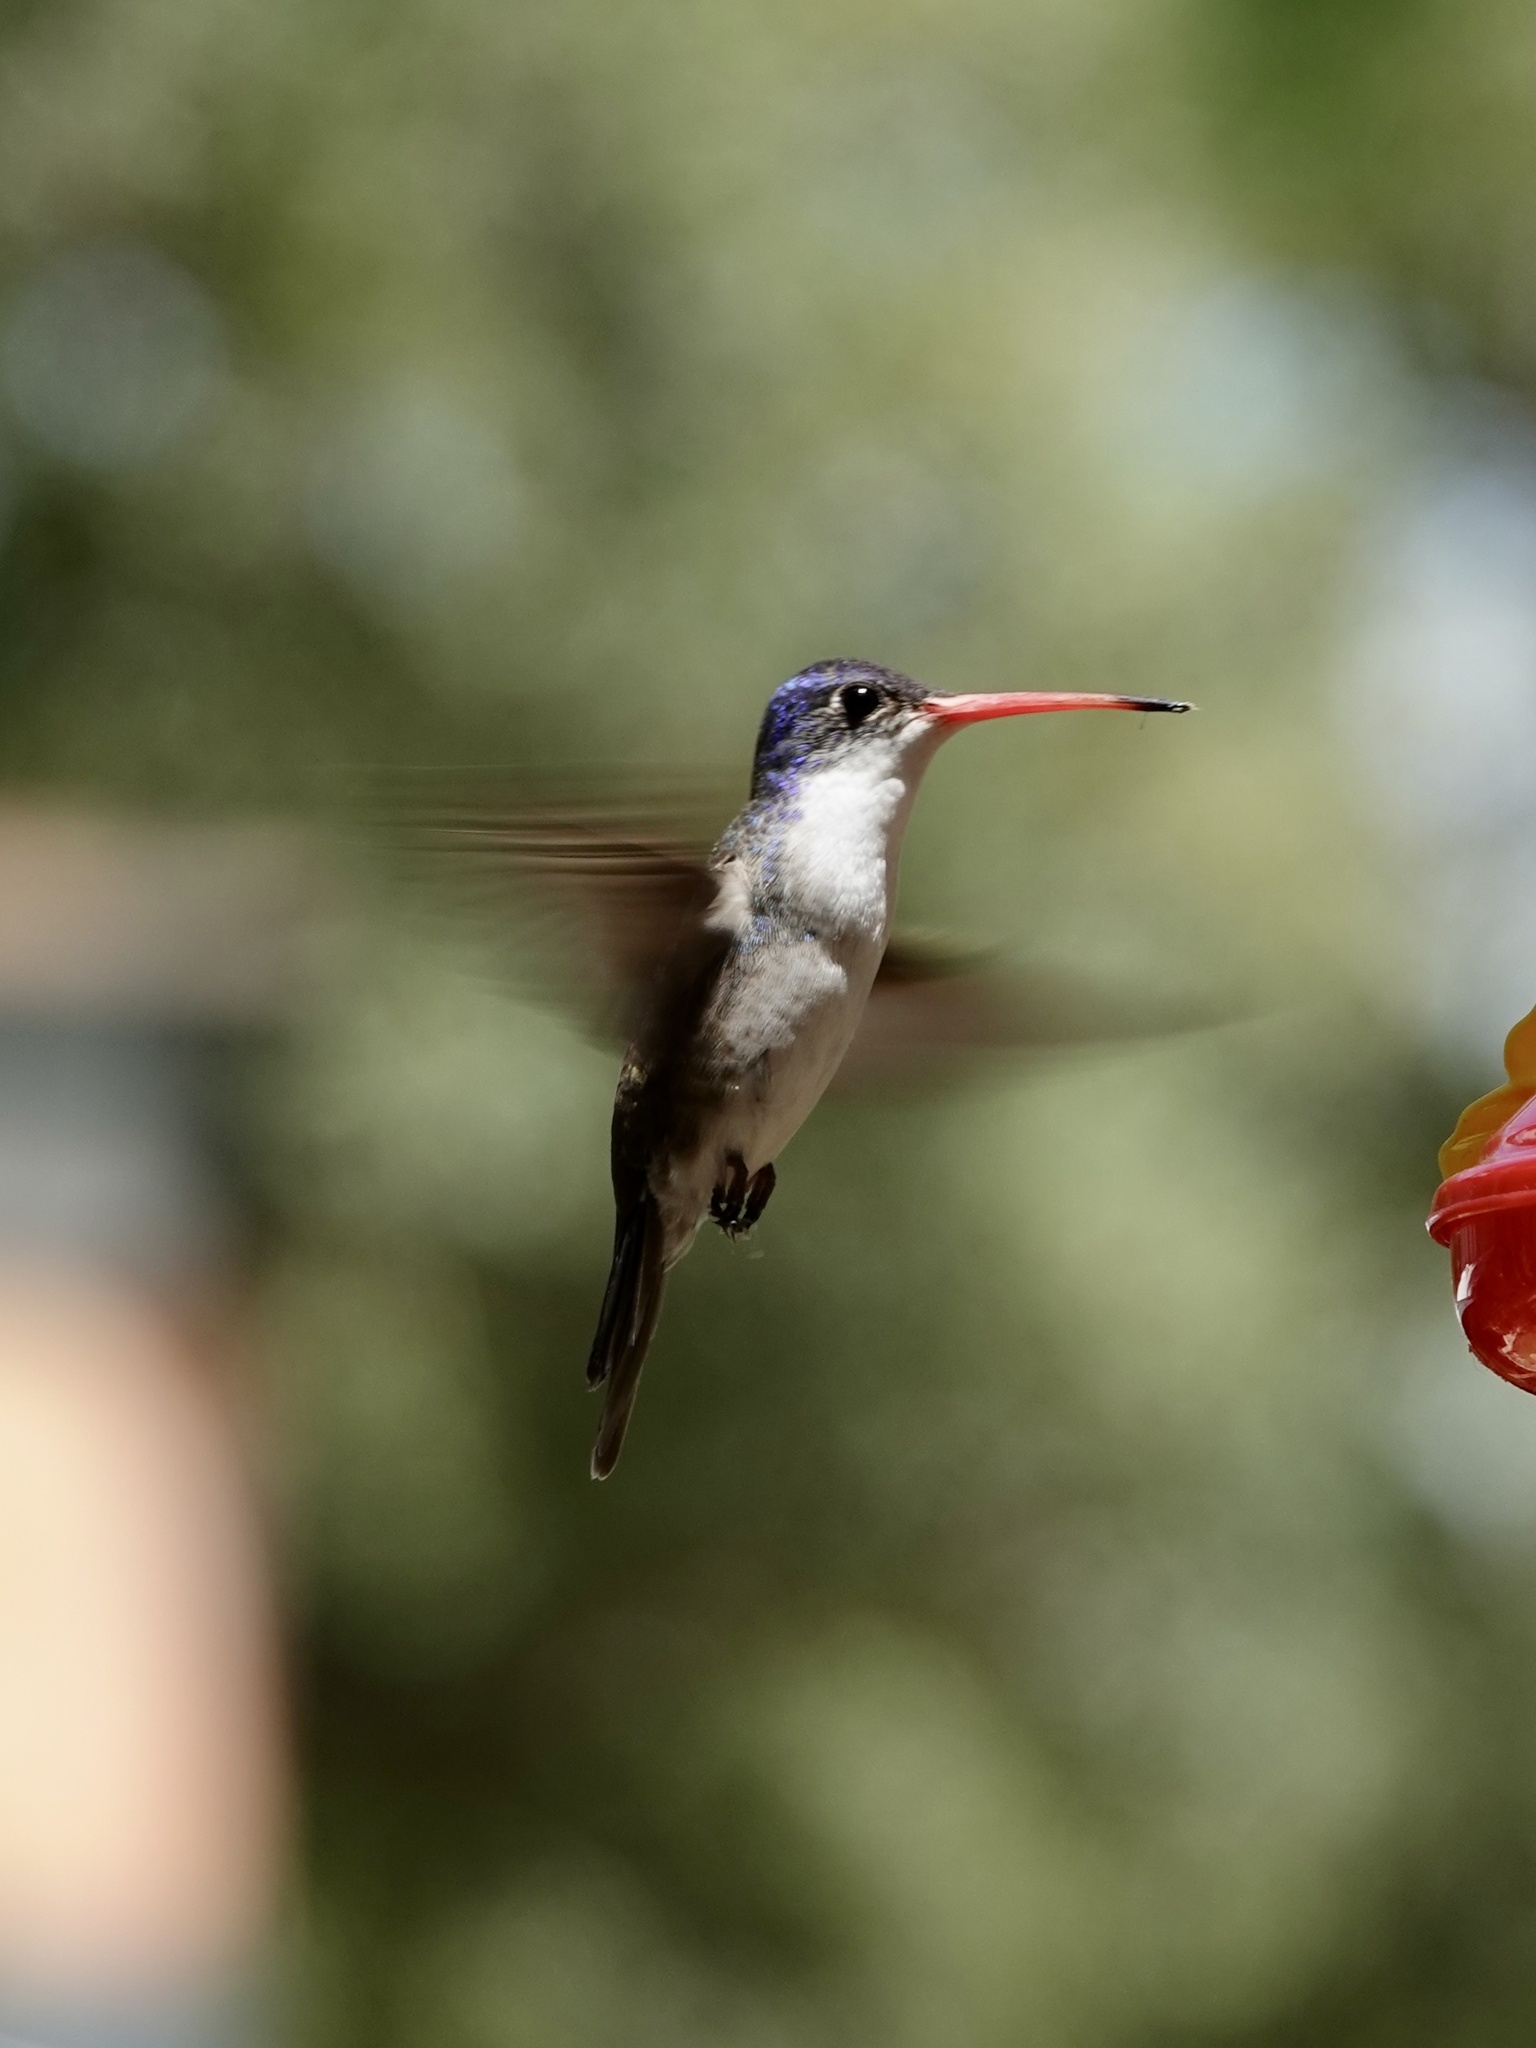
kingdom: Animalia
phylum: Chordata
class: Aves
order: Apodiformes
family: Trochilidae
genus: Leucolia
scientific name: Leucolia violiceps
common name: Violet-crowned hummingbird
